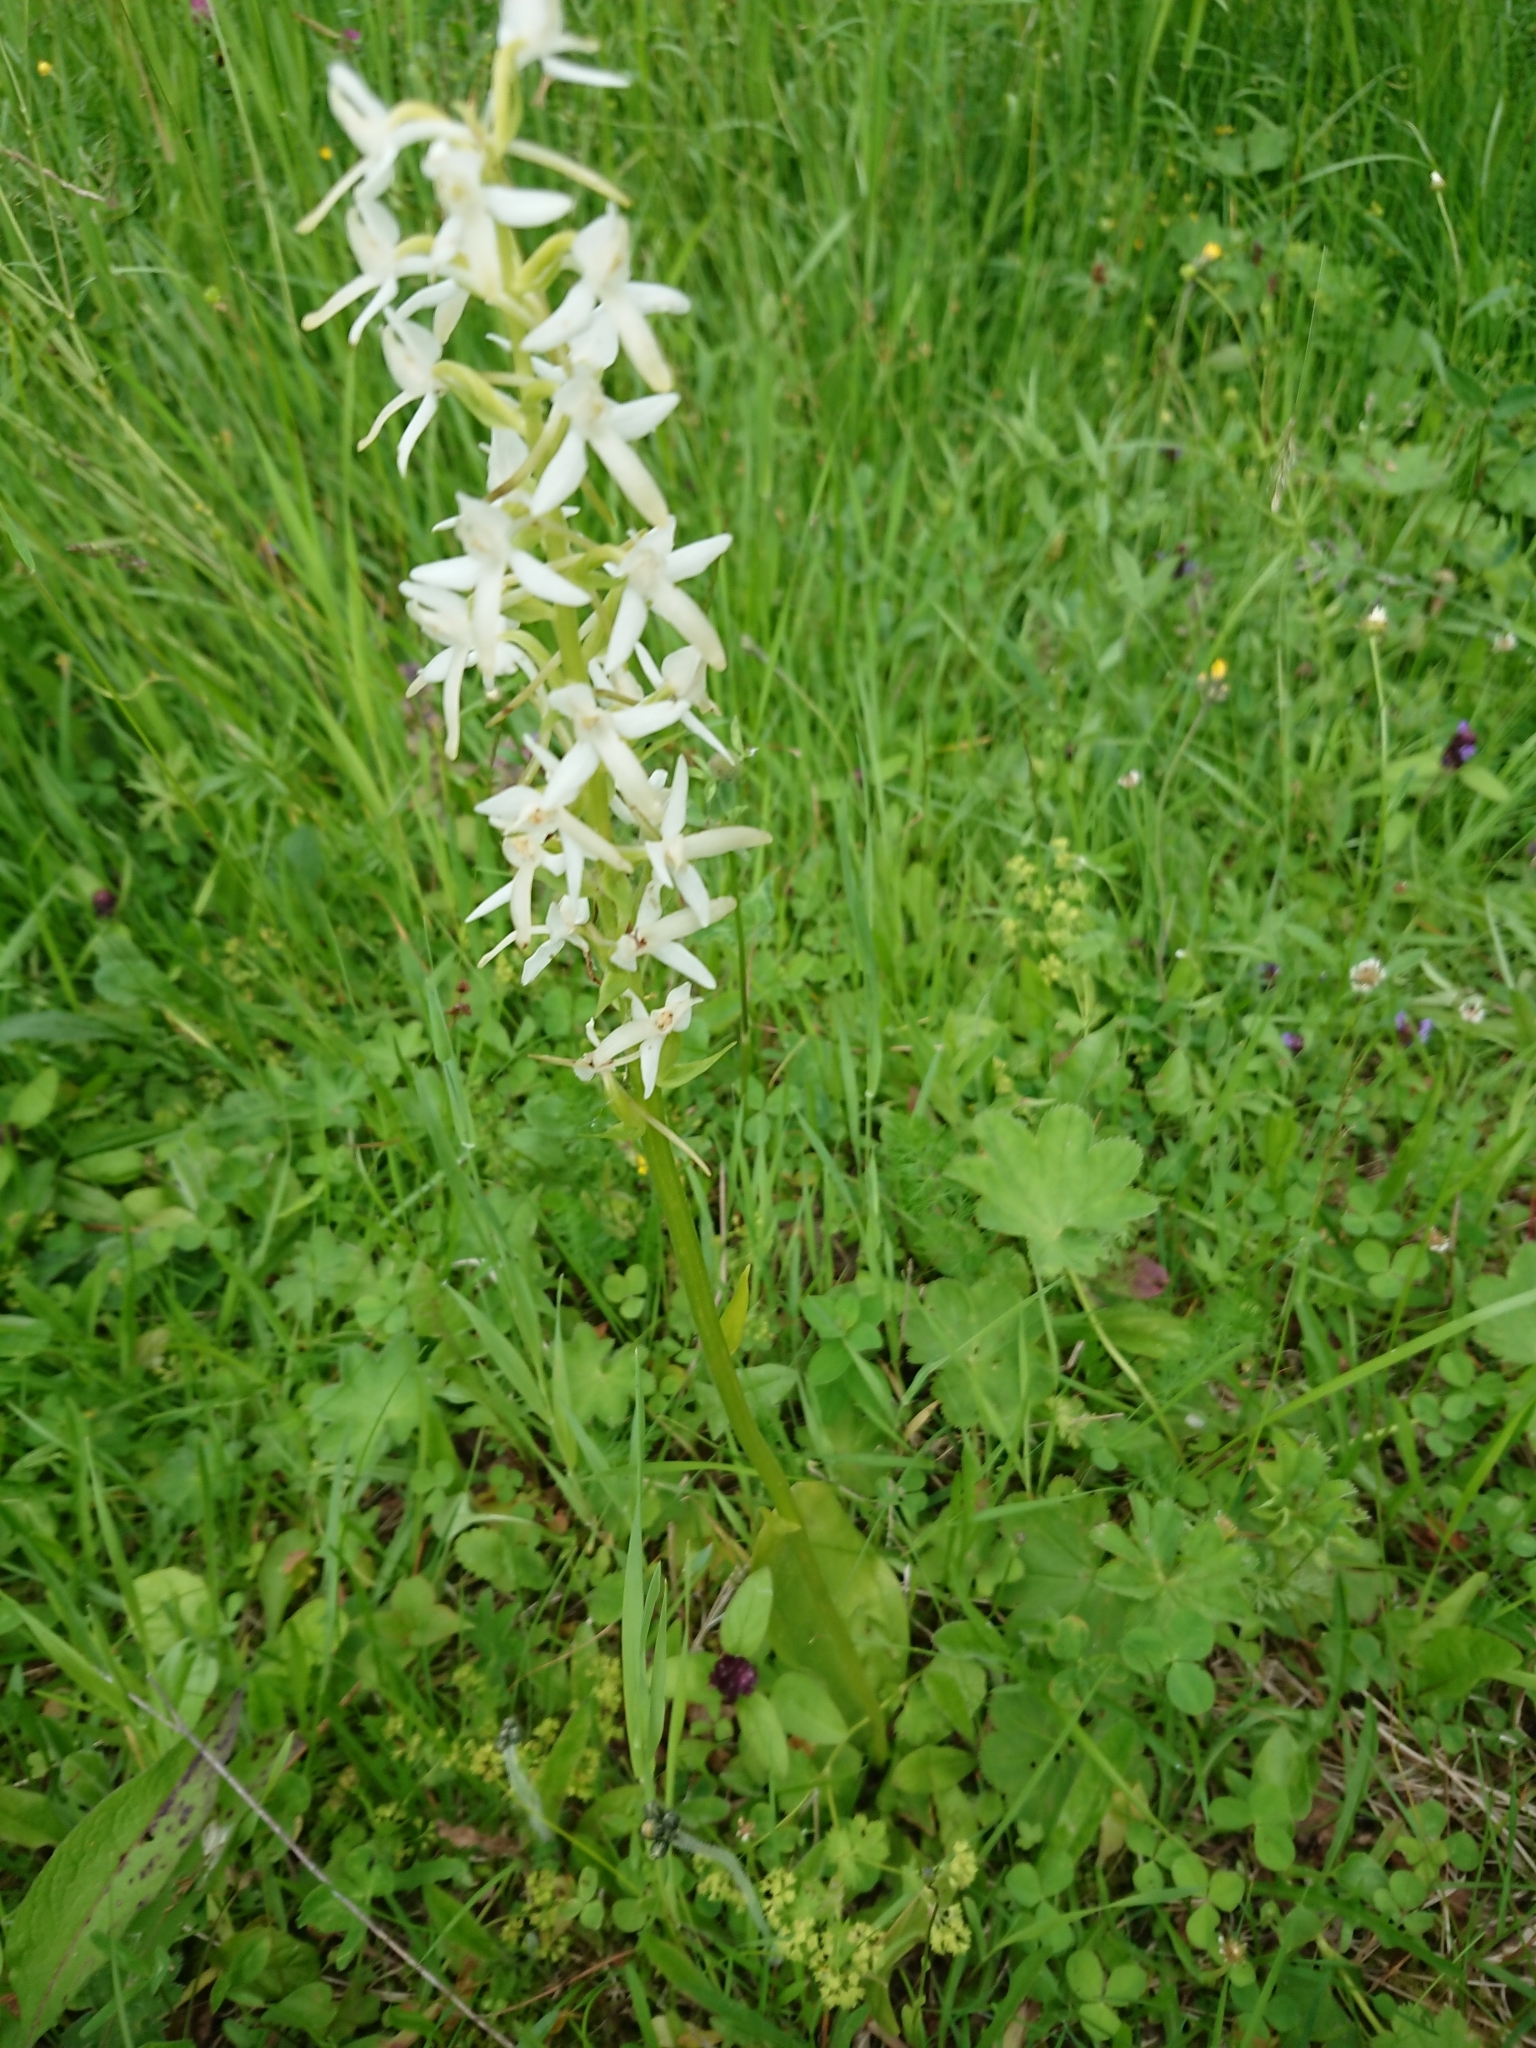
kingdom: Plantae
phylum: Tracheophyta
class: Liliopsida
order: Asparagales
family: Orchidaceae
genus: Platanthera
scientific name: Platanthera bifolia
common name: Lesser butterfly-orchid
